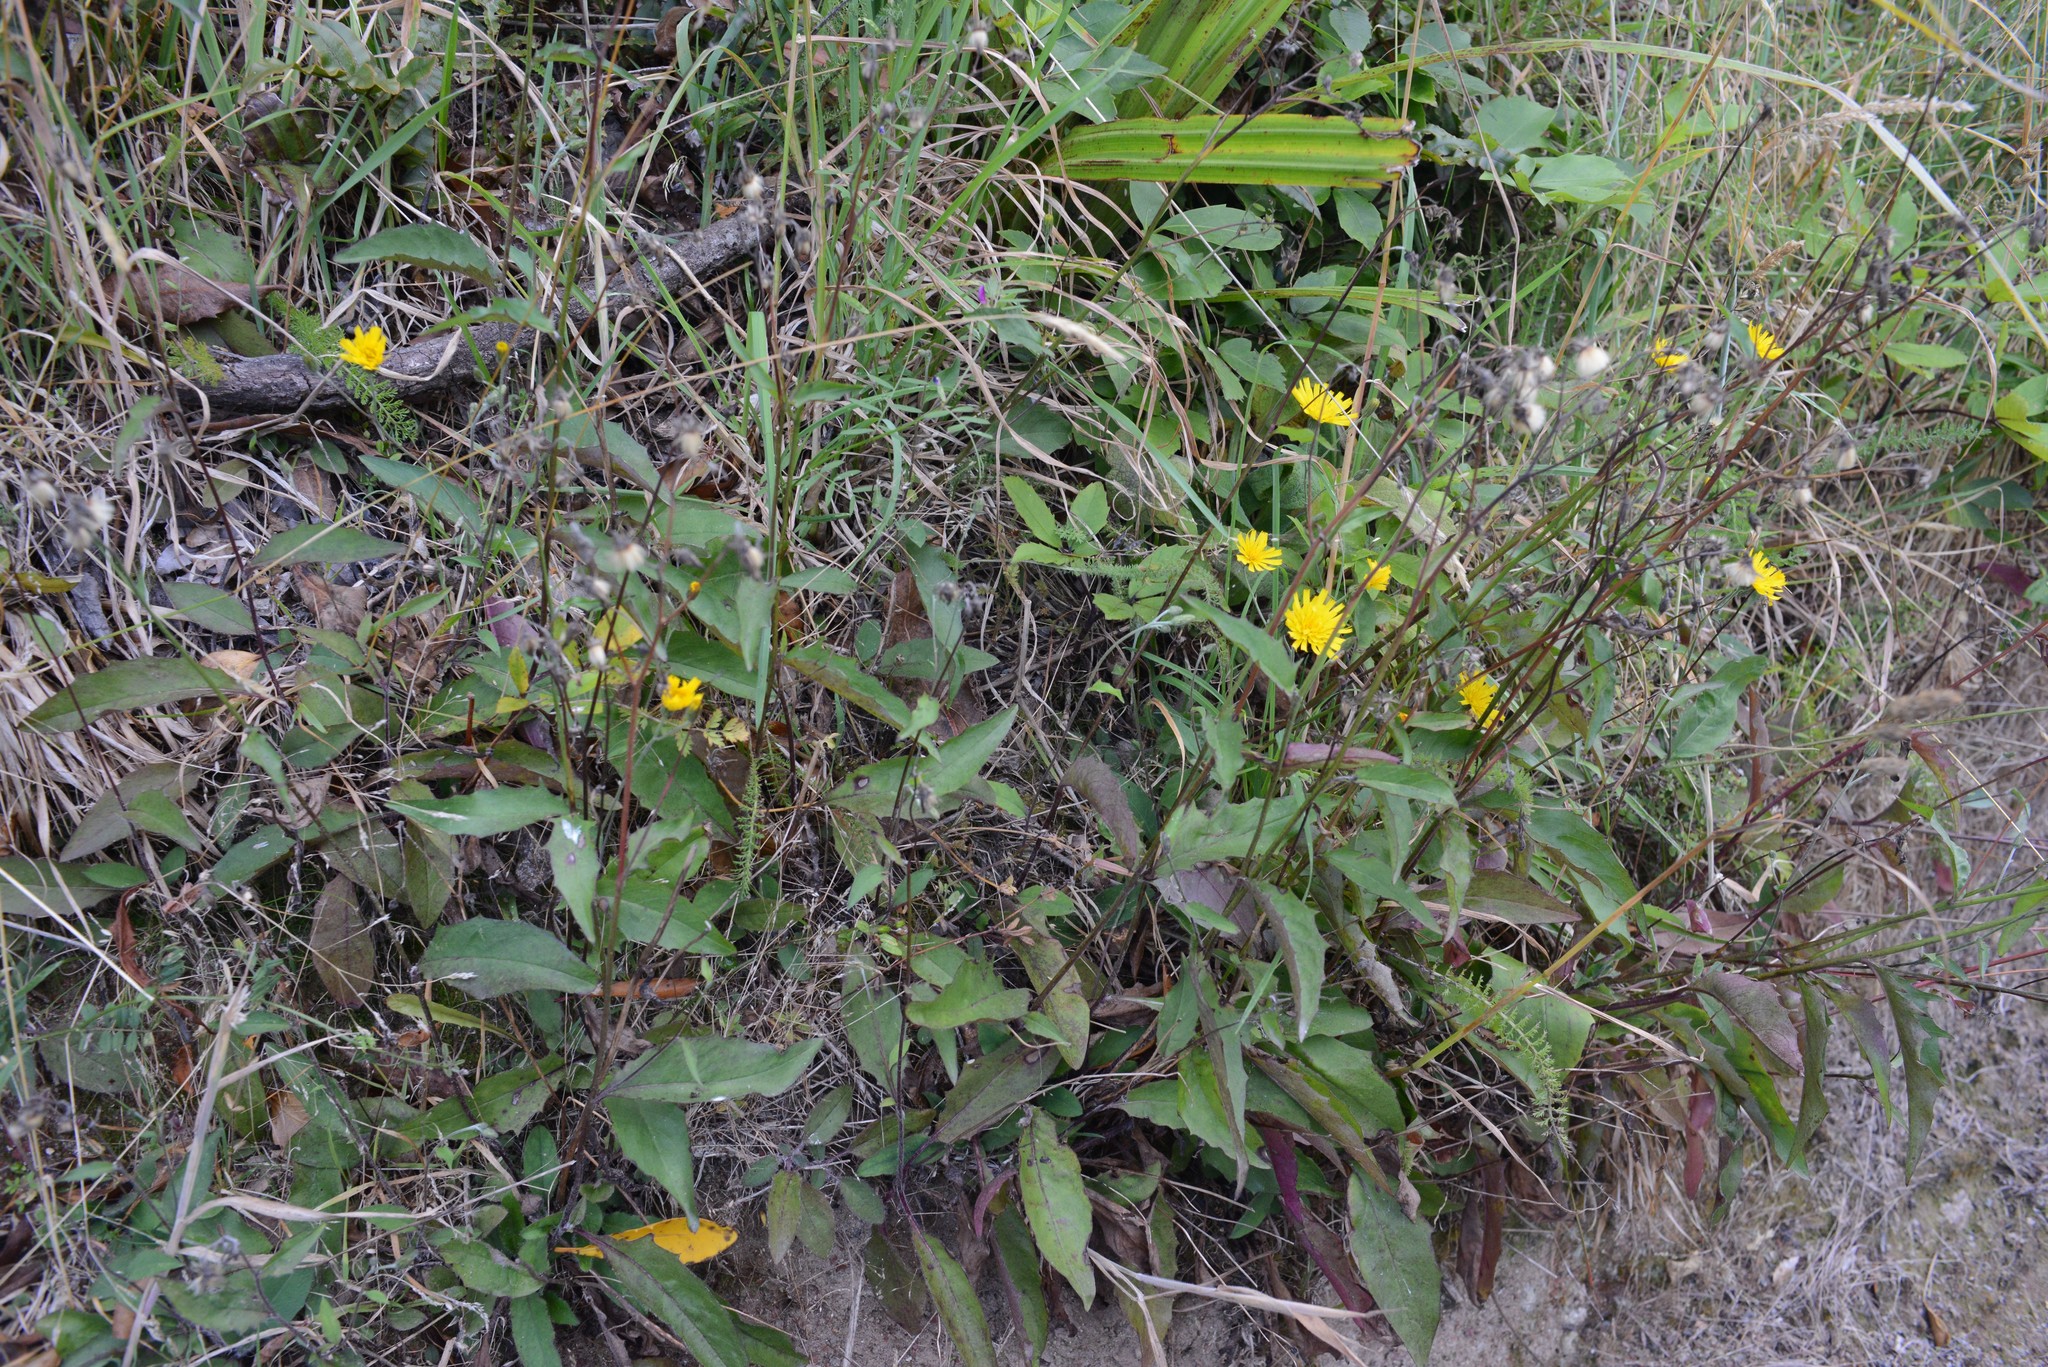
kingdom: Plantae
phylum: Tracheophyta
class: Magnoliopsida
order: Asterales
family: Asteraceae
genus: Hieracium
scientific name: Hieracium lepidulum
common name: Irregular-toothed hawkweed
